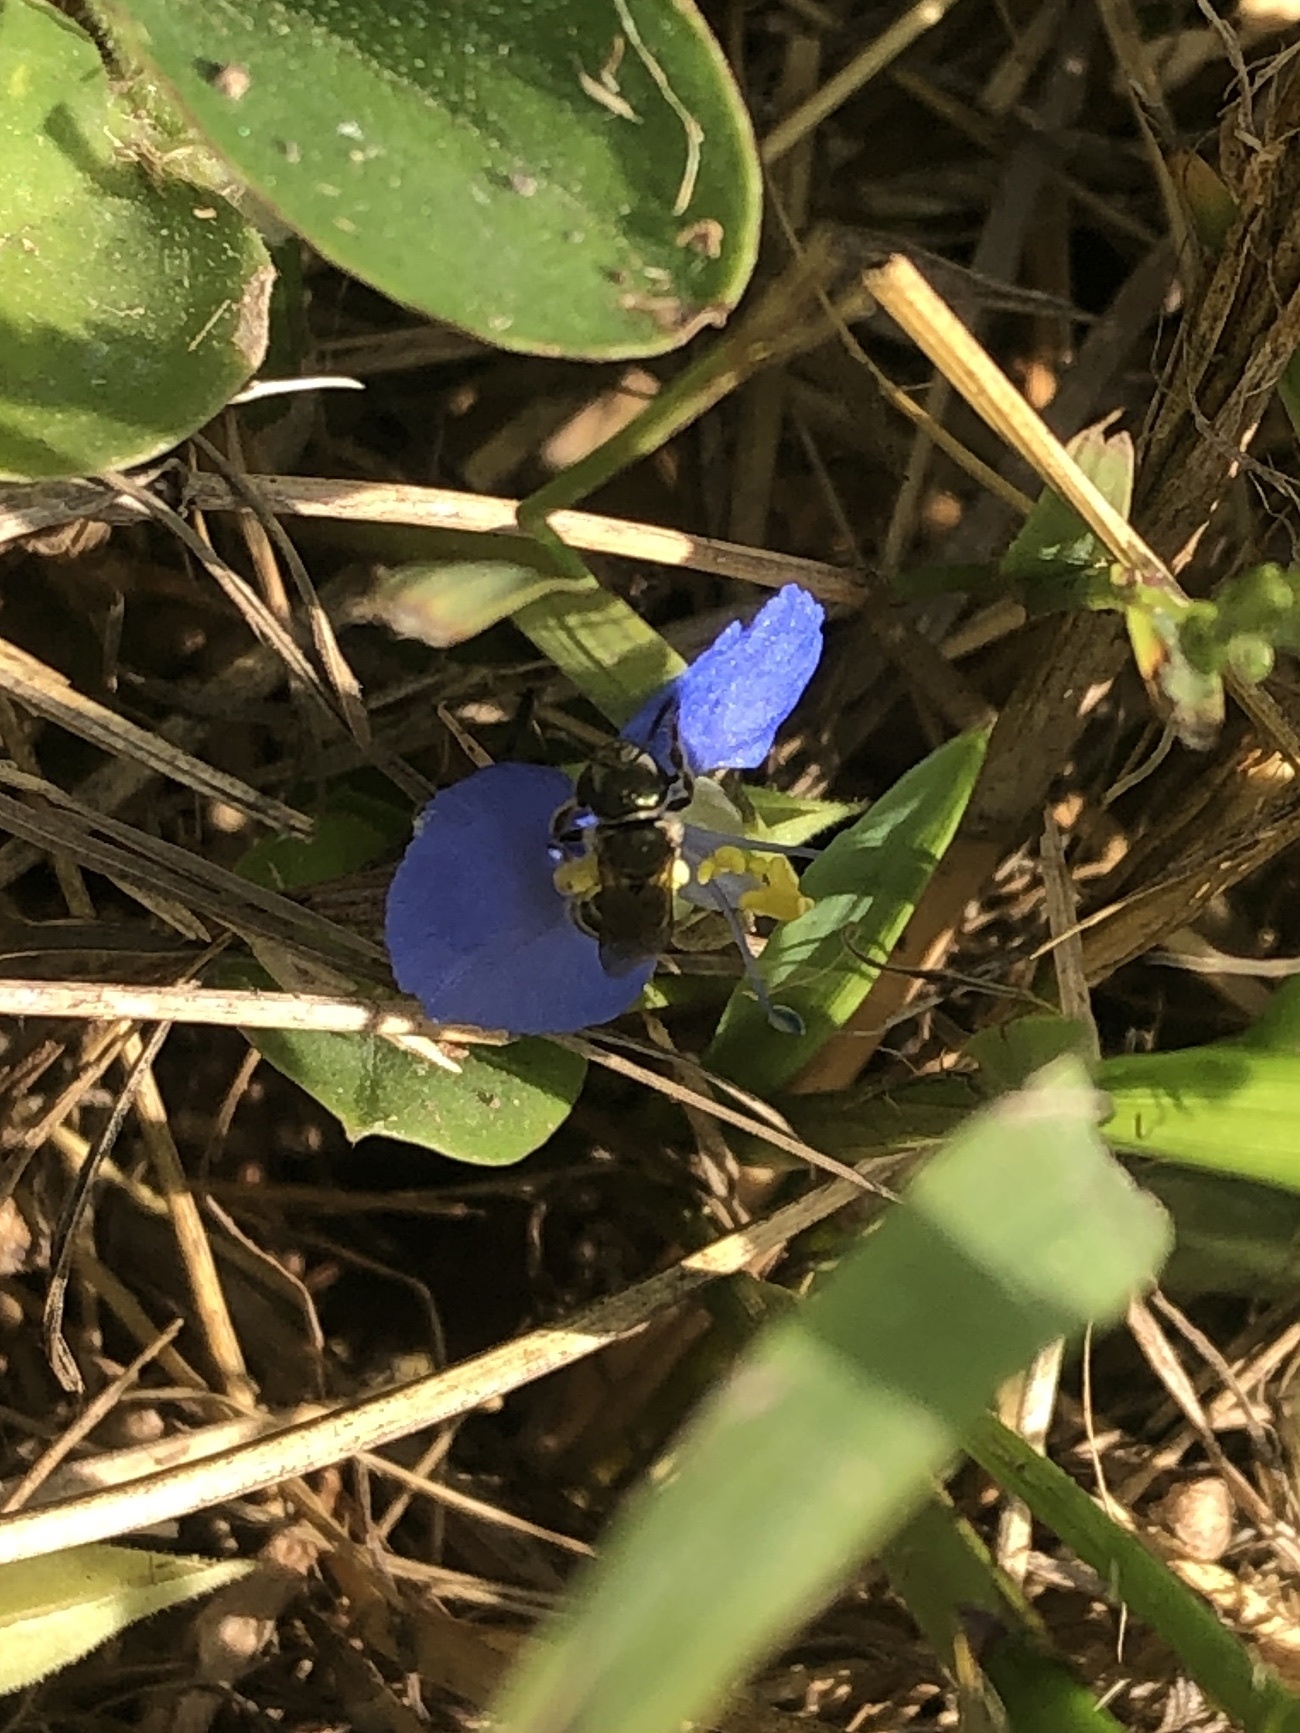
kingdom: Animalia
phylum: Arthropoda
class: Insecta
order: Hymenoptera
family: Halictidae
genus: Halictus
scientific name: Halictus tripartitus
